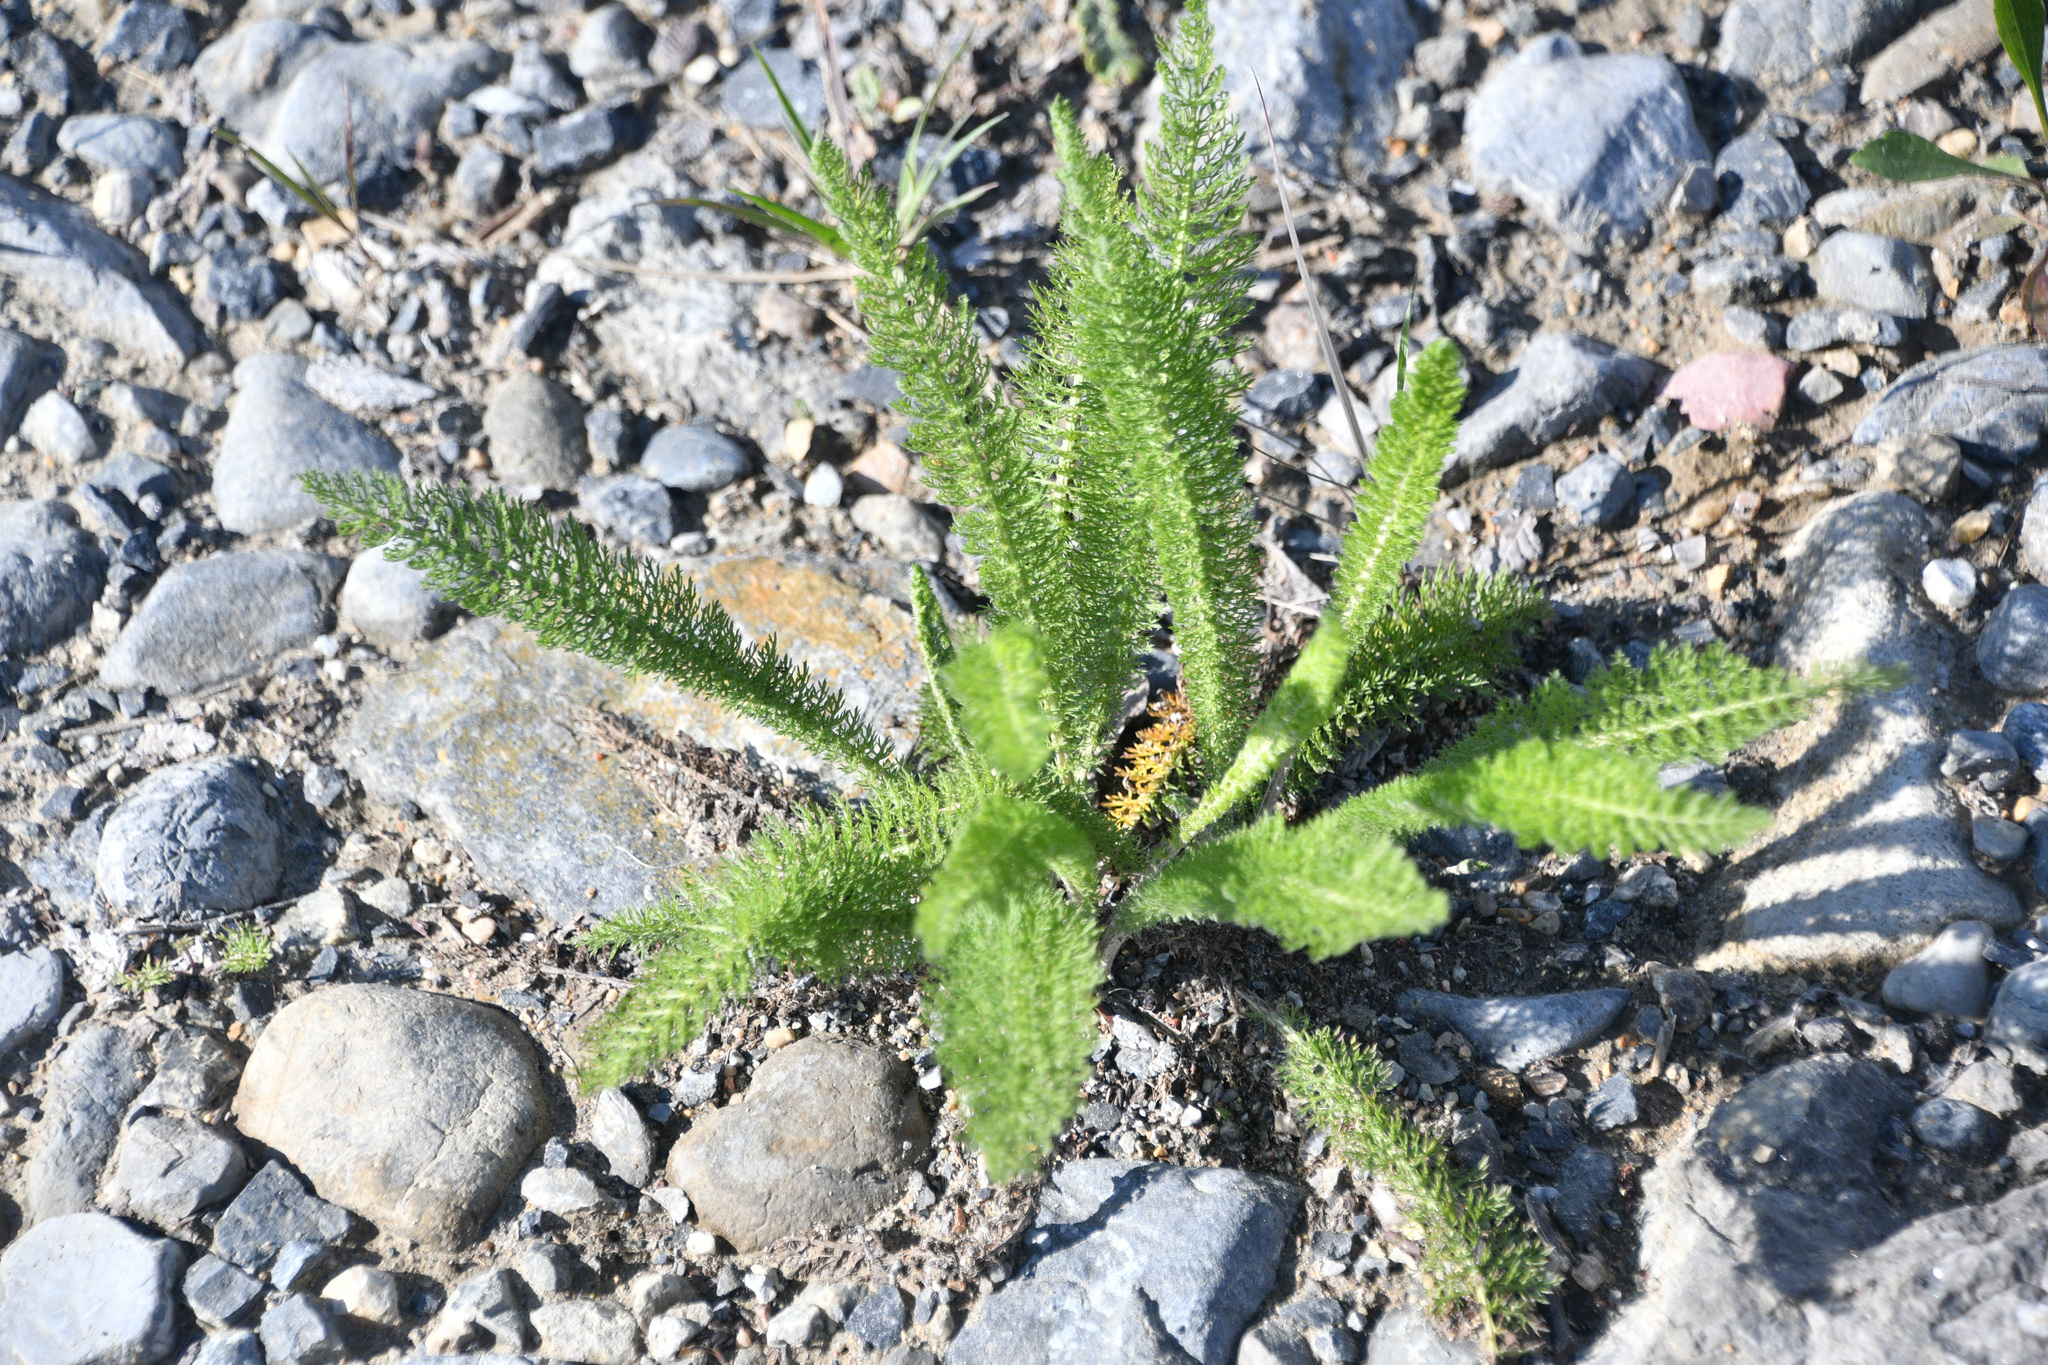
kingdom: Plantae
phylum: Tracheophyta
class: Magnoliopsida
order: Asterales
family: Asteraceae
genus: Achillea
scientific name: Achillea millefolium
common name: Yarrow
